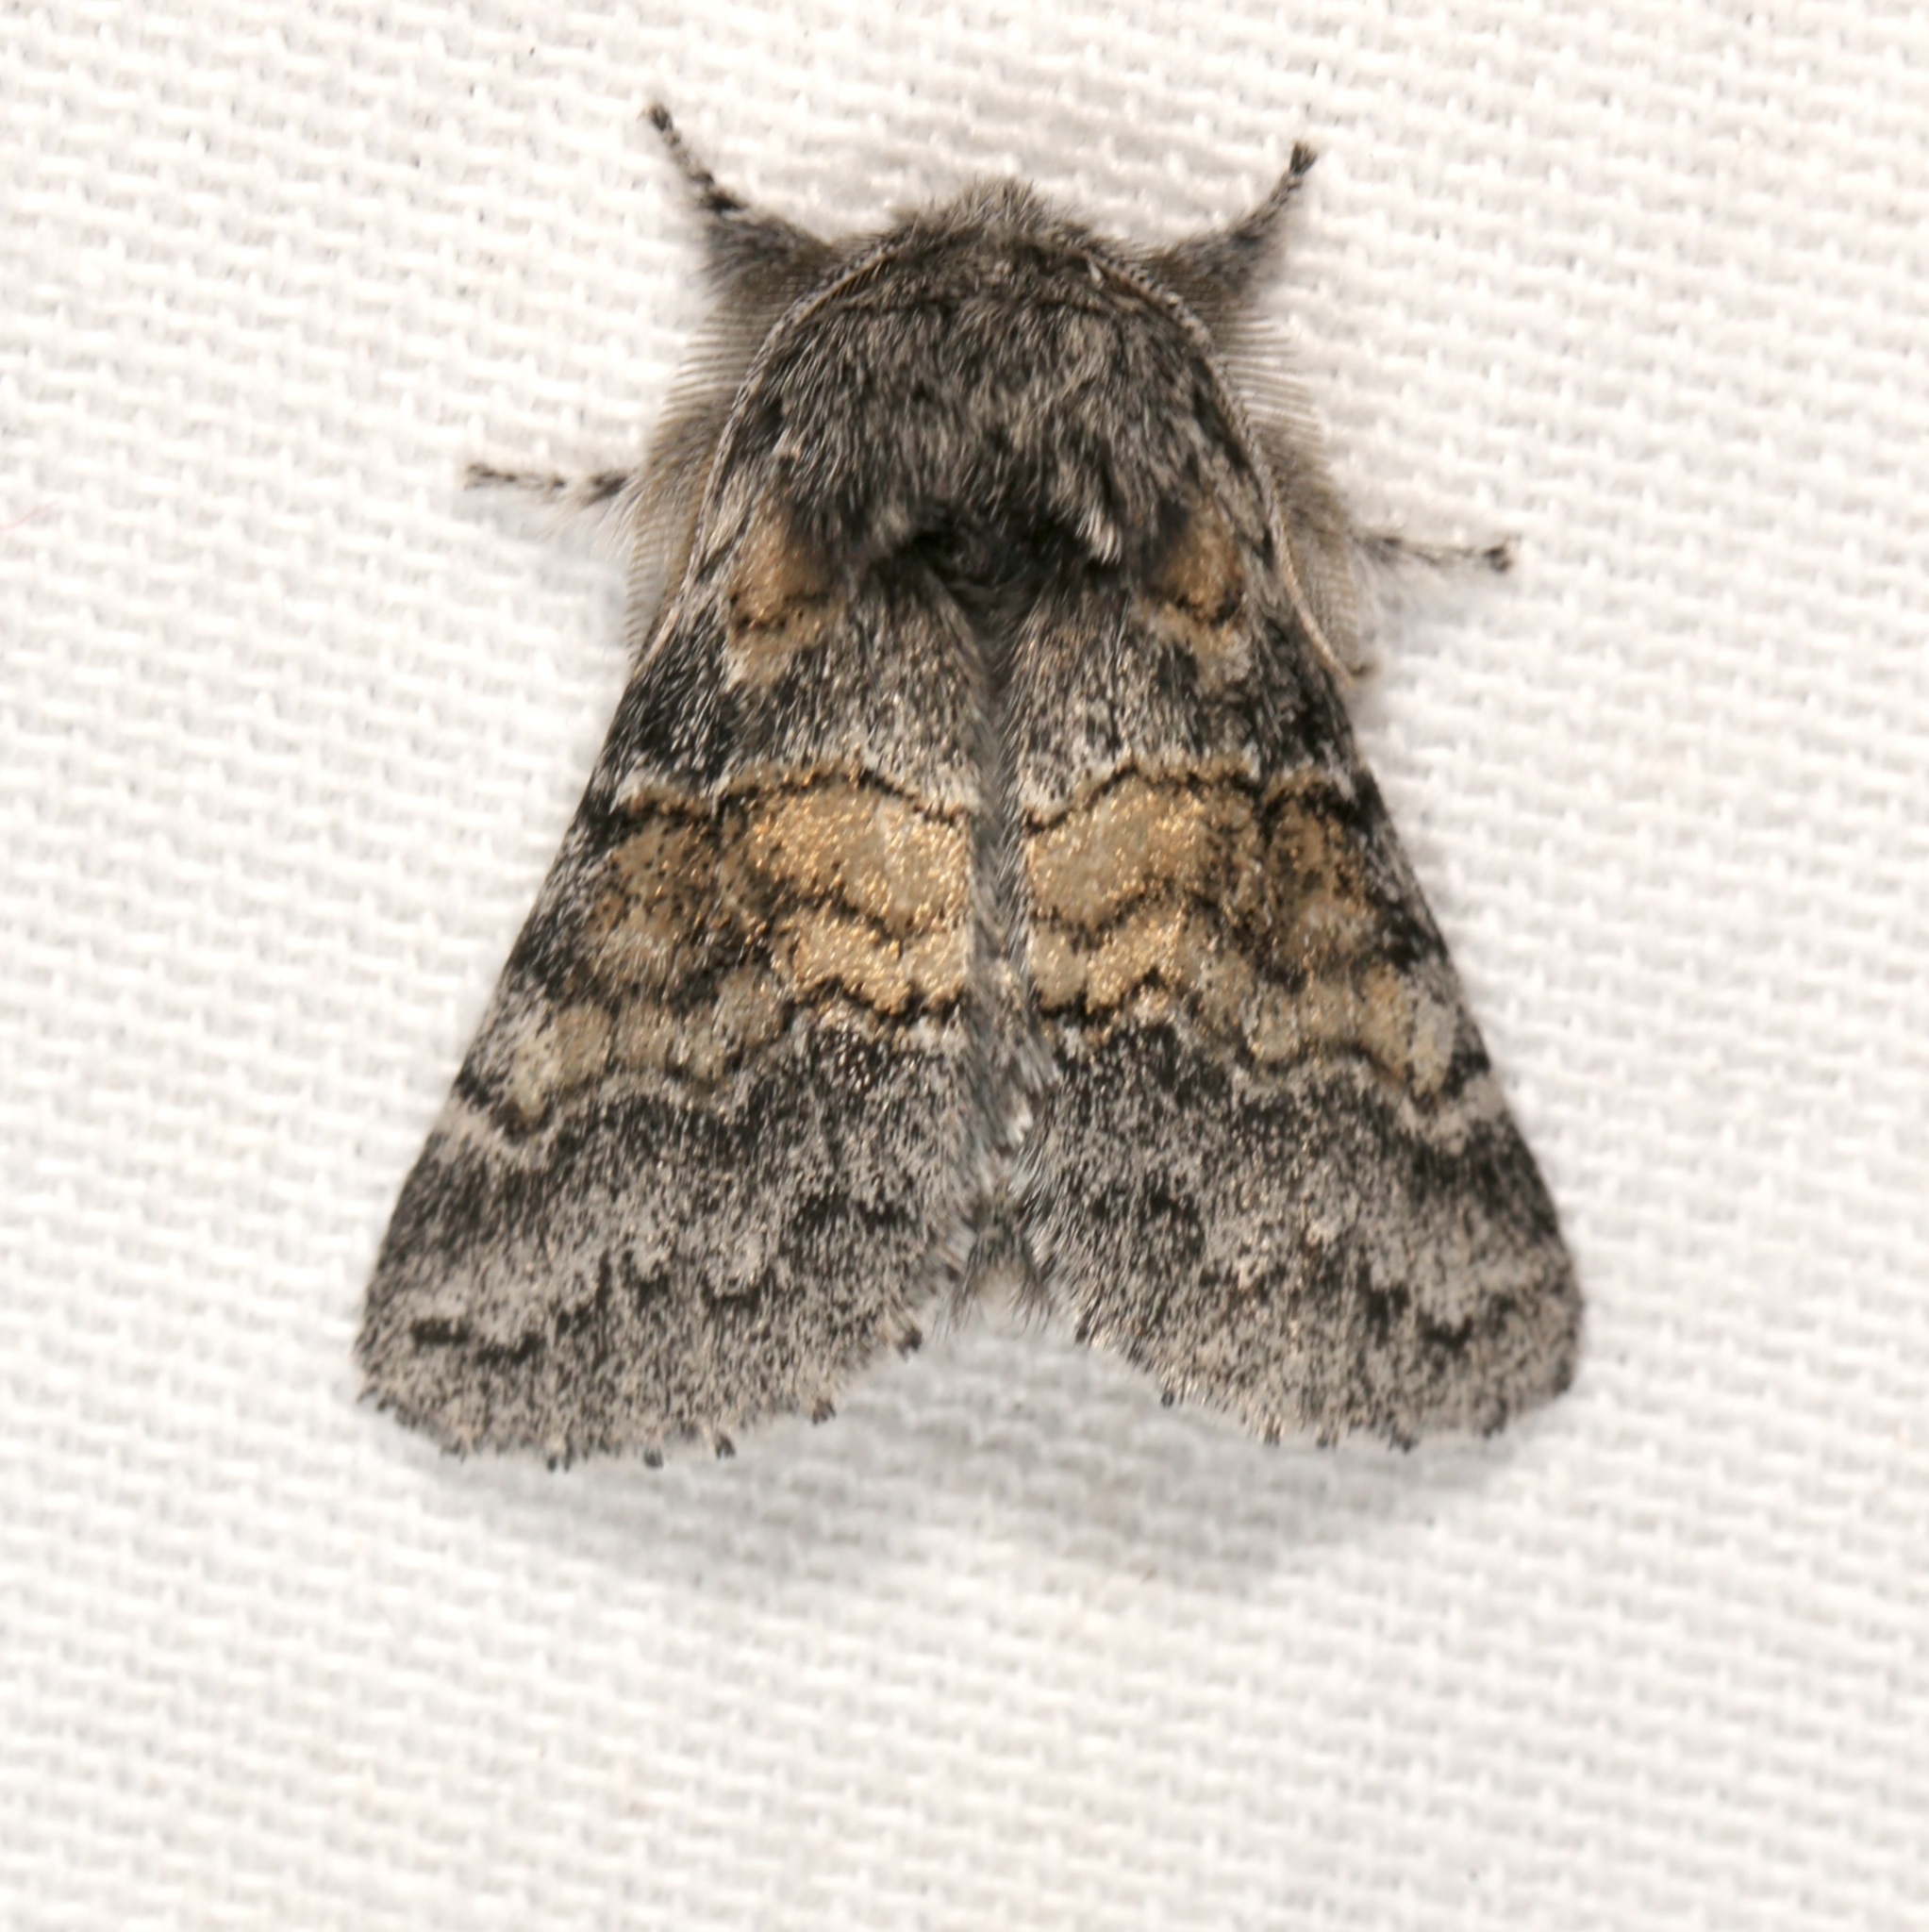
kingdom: Animalia
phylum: Arthropoda
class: Insecta
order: Lepidoptera
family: Notodontidae
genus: Gluphisia
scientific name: Gluphisia septentrionis
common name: Common gluphisia
